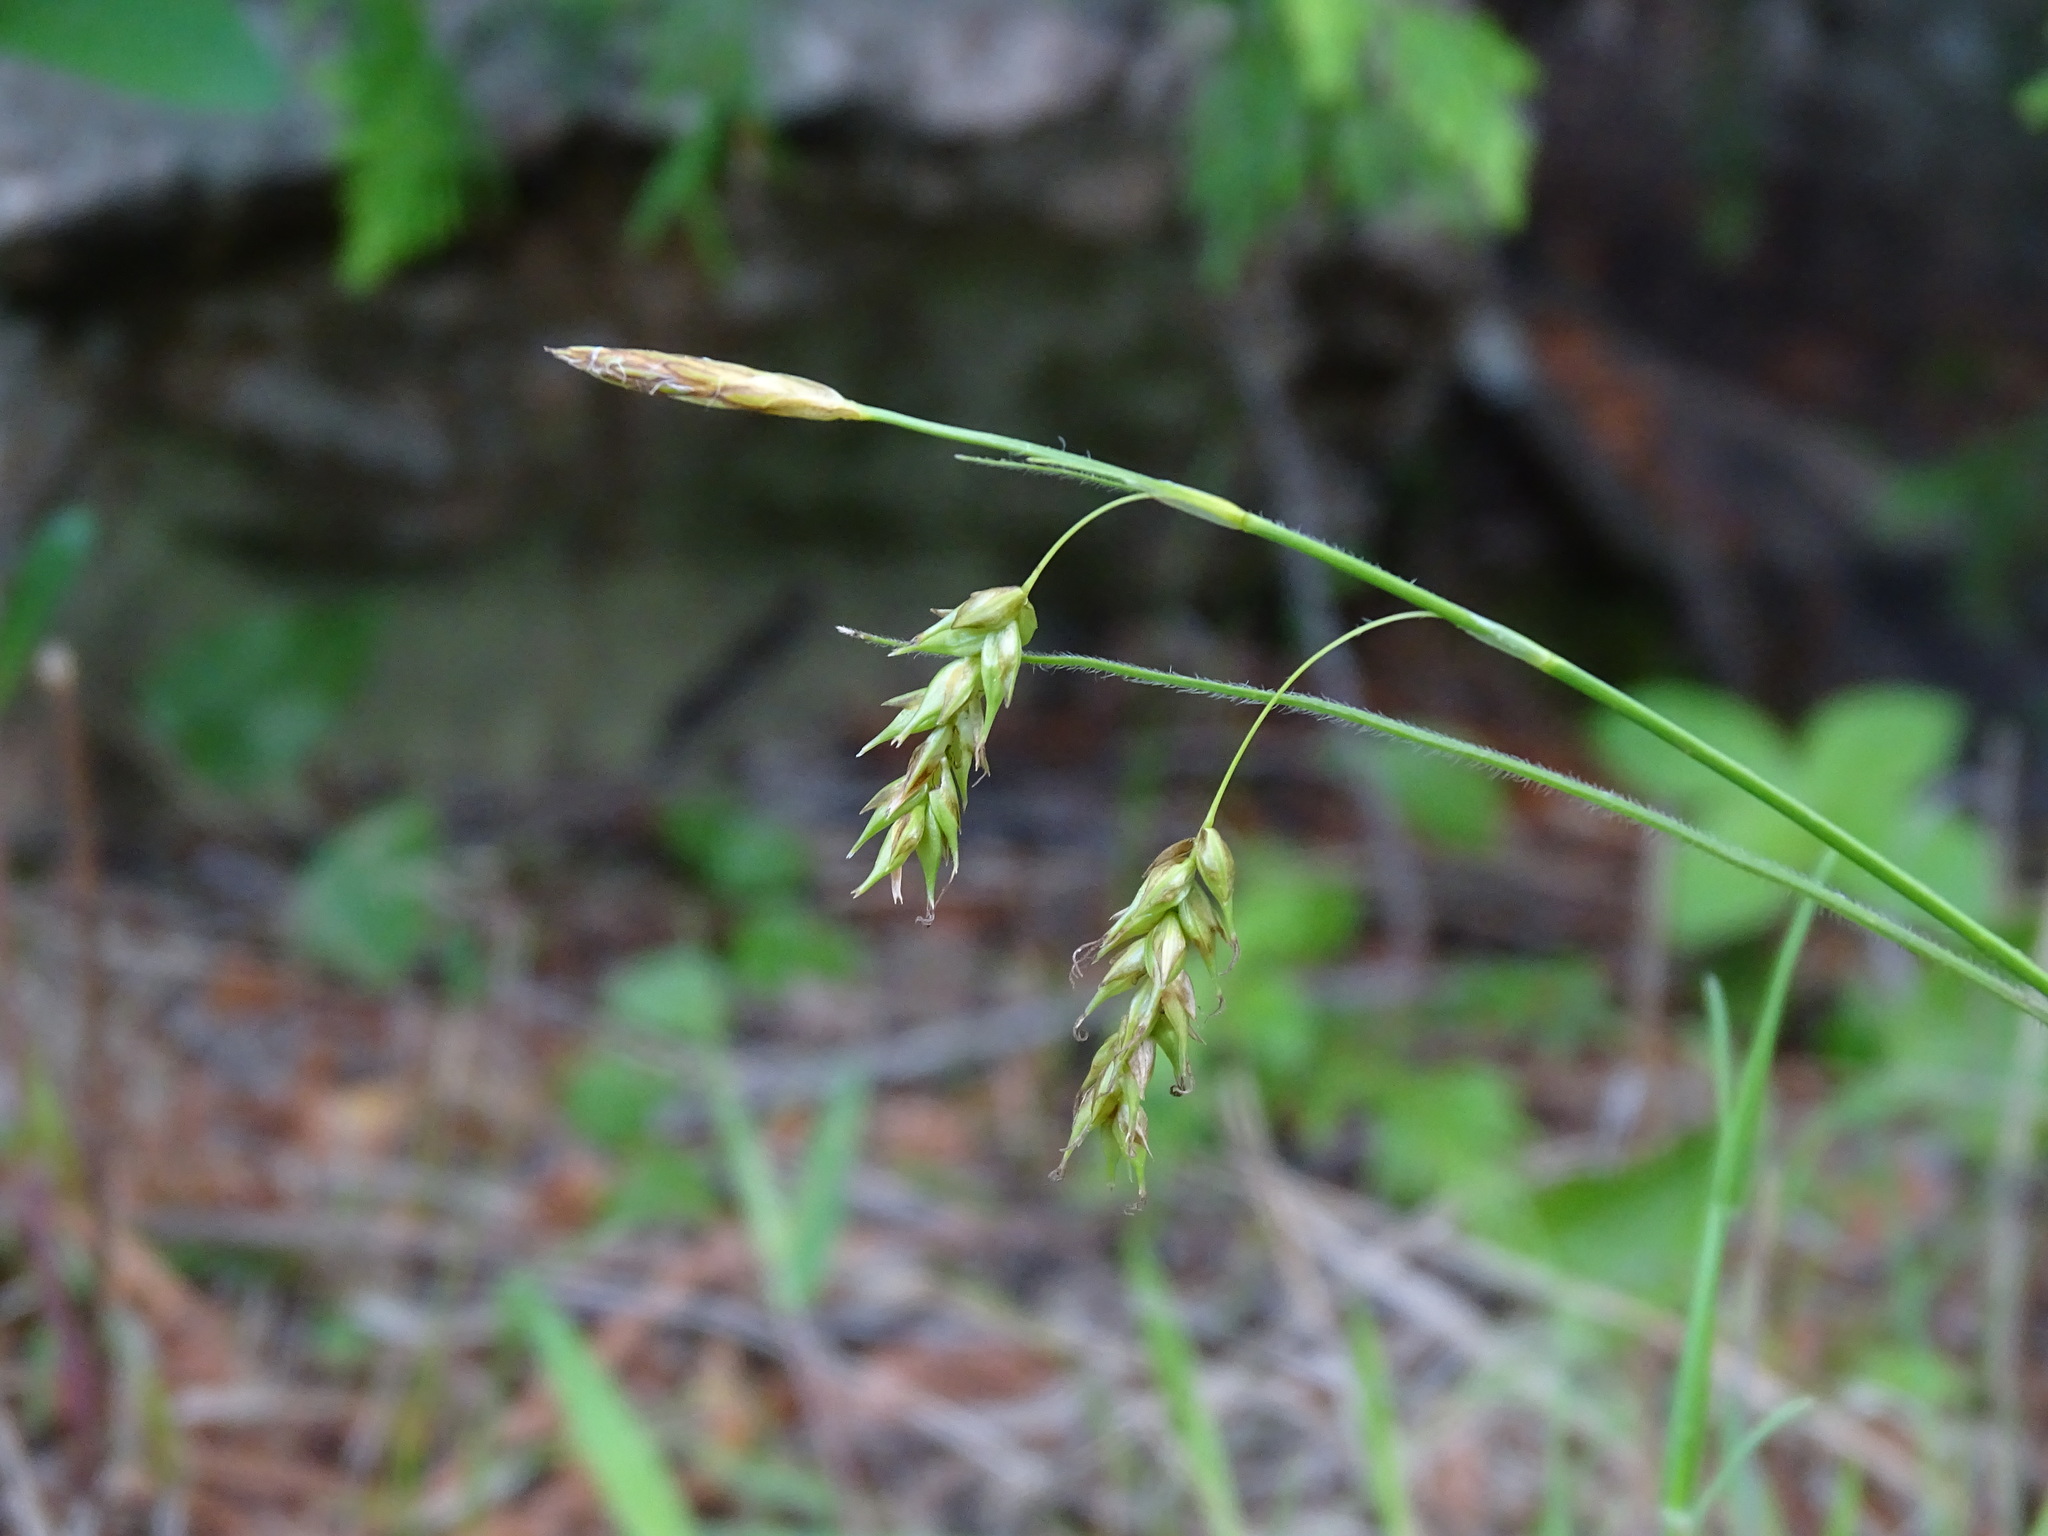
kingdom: Plantae
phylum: Tracheophyta
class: Liliopsida
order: Poales
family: Cyperaceae
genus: Carex
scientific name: Carex castanea
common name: Chestnut sedge
